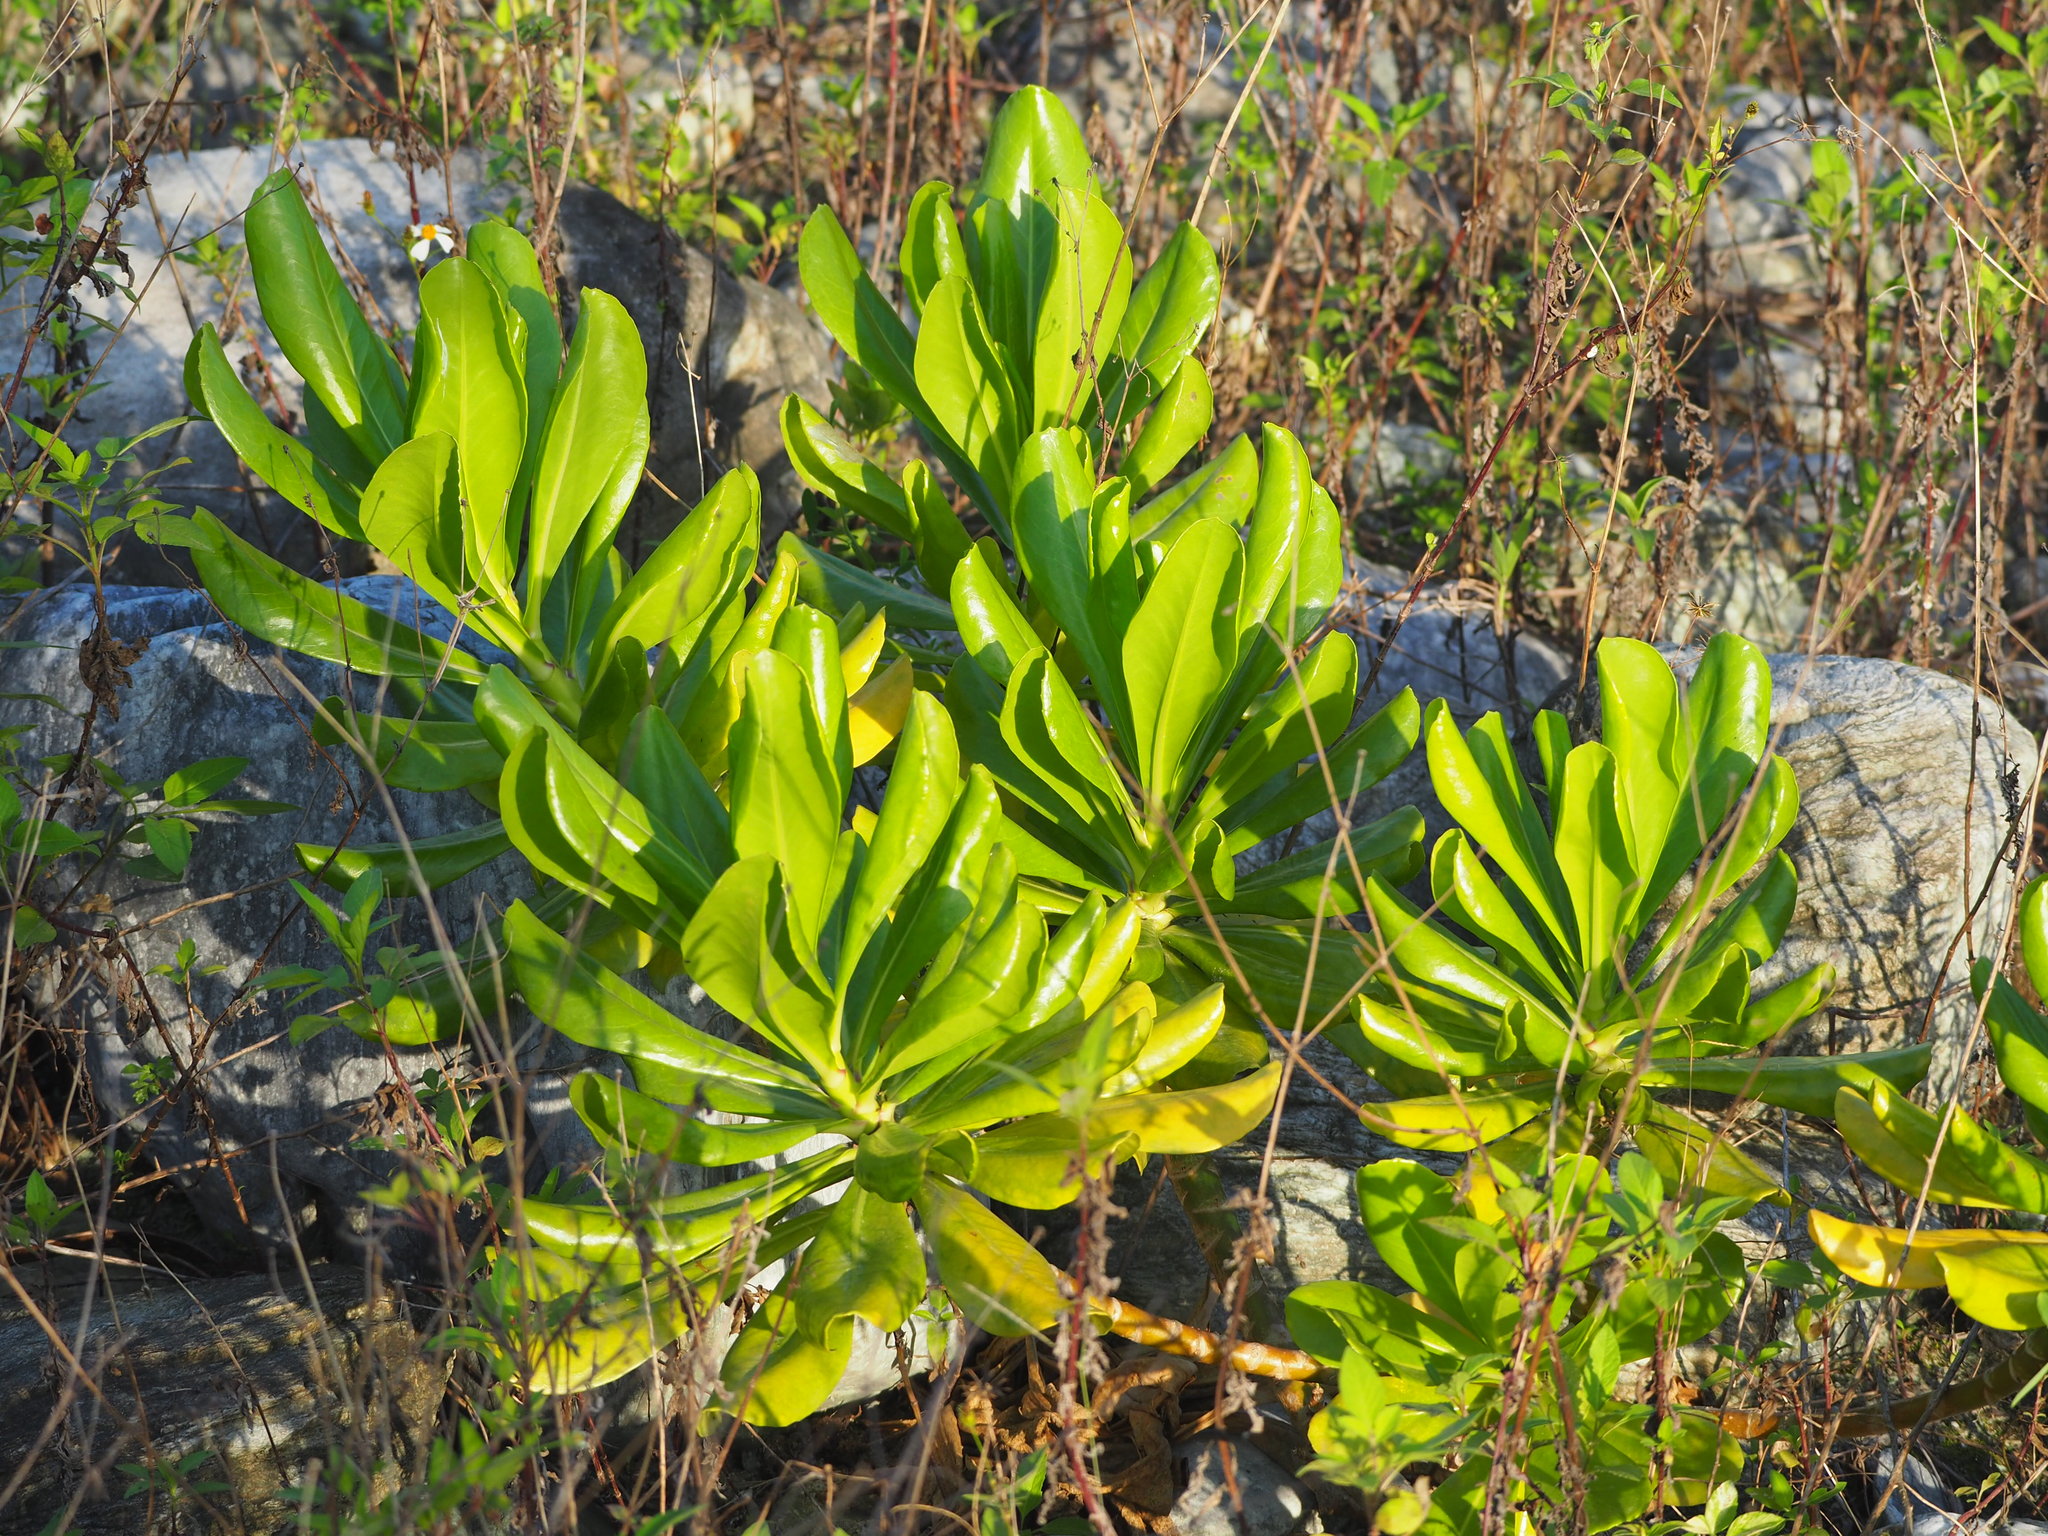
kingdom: Plantae
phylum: Tracheophyta
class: Magnoliopsida
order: Asterales
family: Goodeniaceae
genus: Scaevola
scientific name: Scaevola taccada
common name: Sea lettucetree
